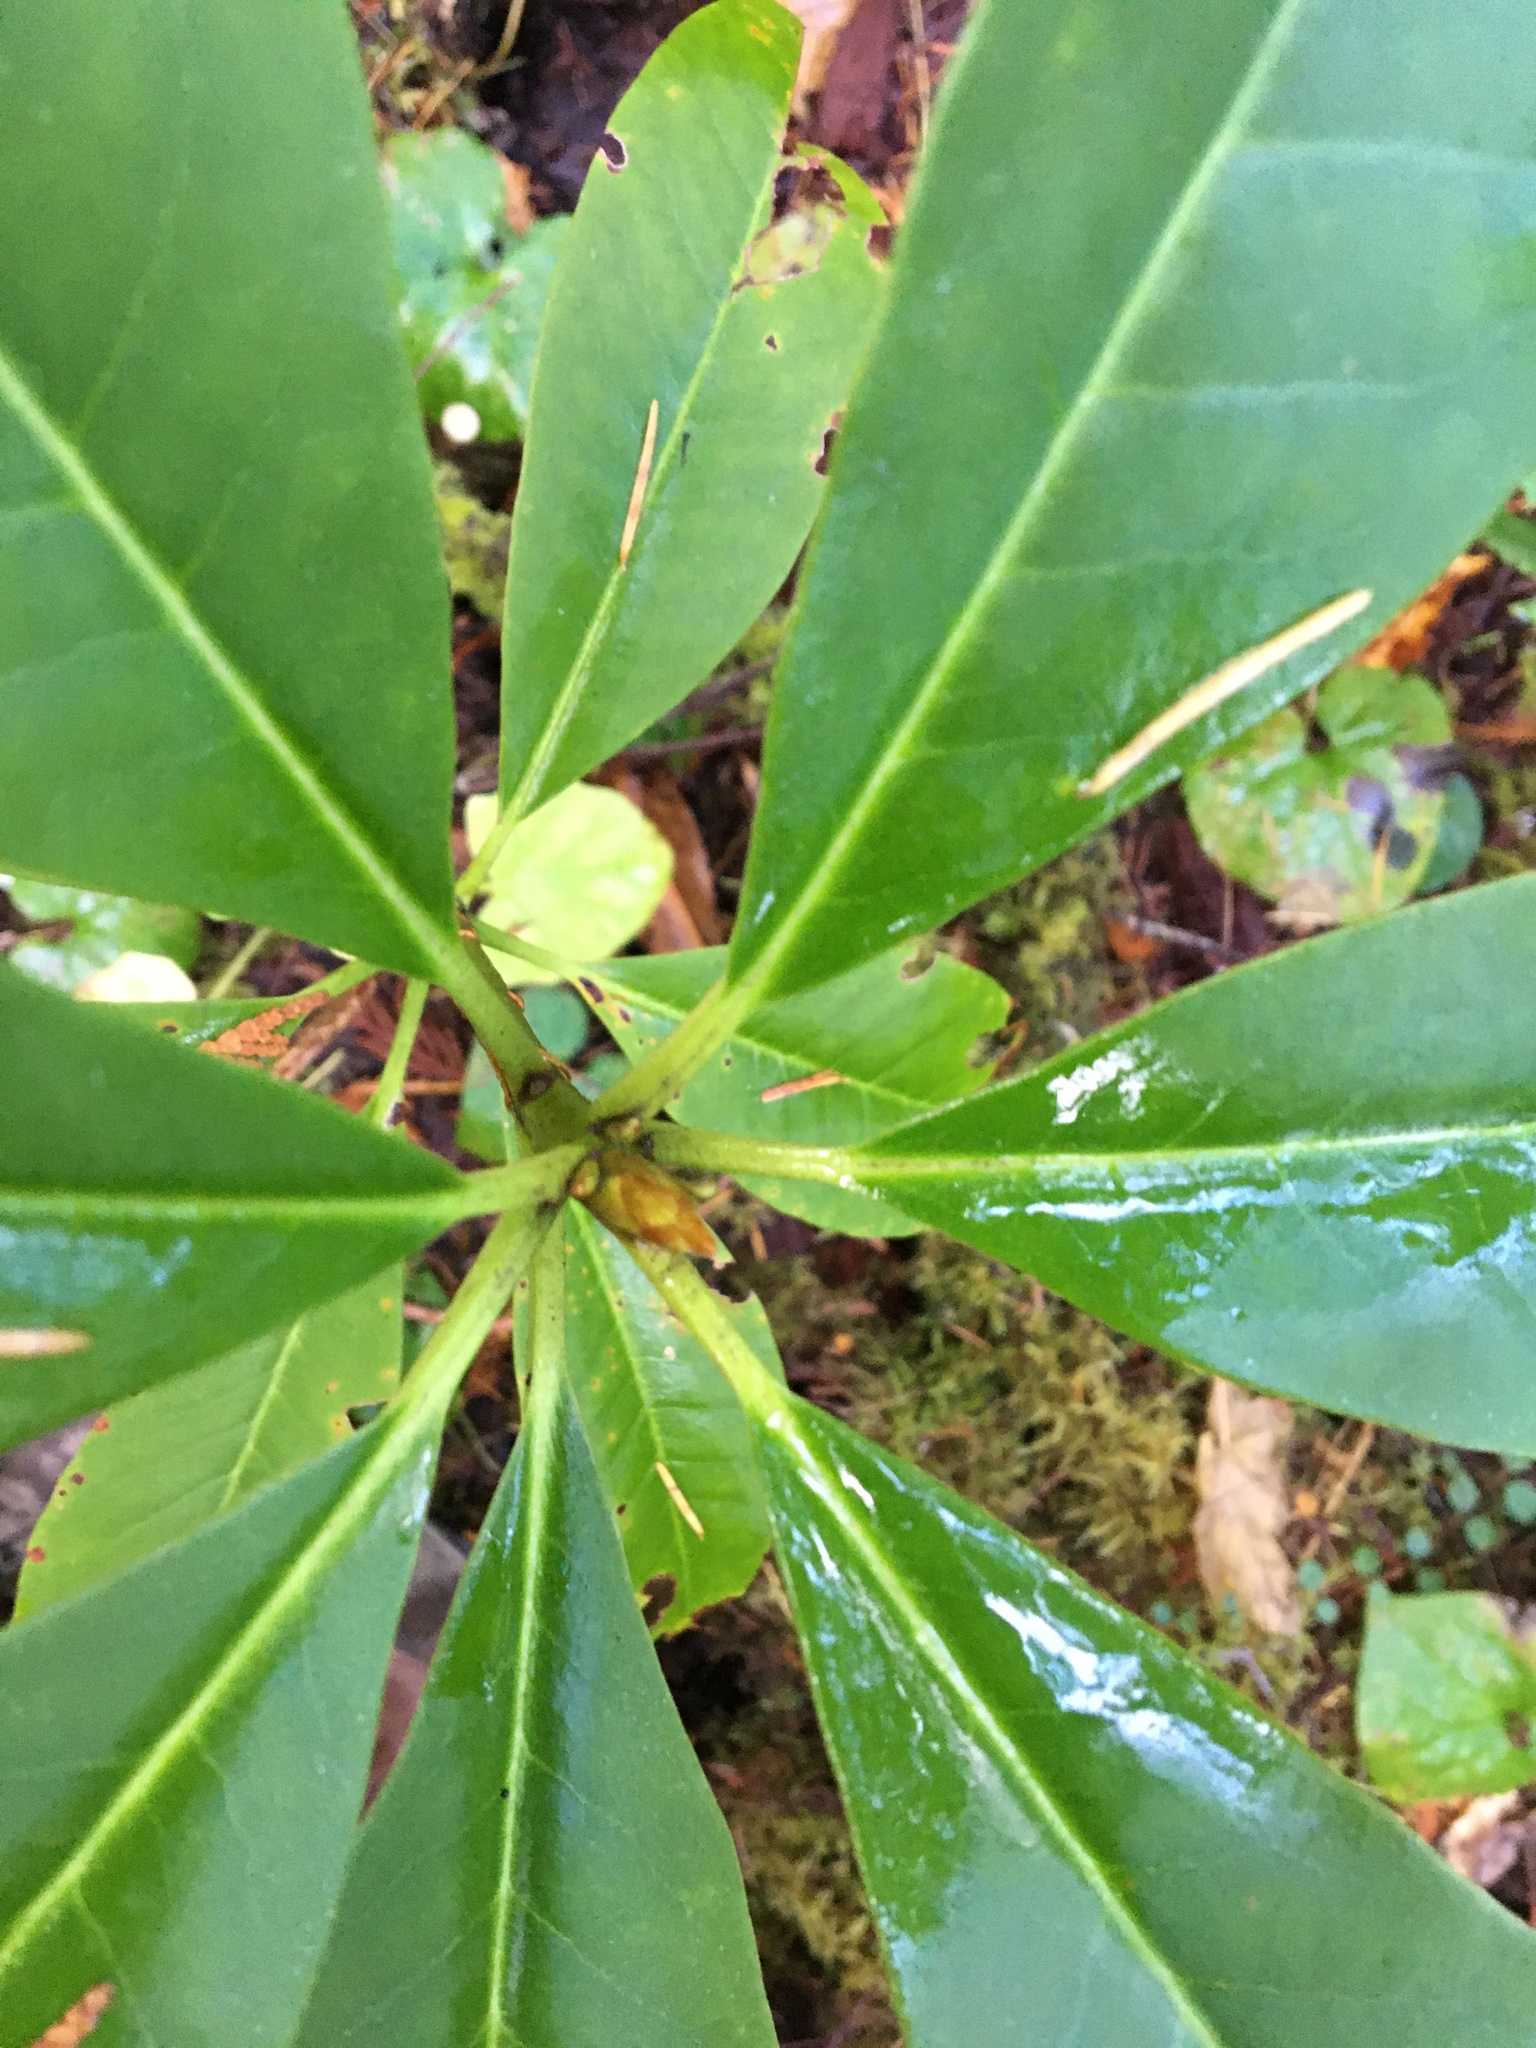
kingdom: Plantae
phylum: Tracheophyta
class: Magnoliopsida
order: Ericales
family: Ericaceae
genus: Rhododendron
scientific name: Rhododendron macrophyllum
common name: California rose bay
